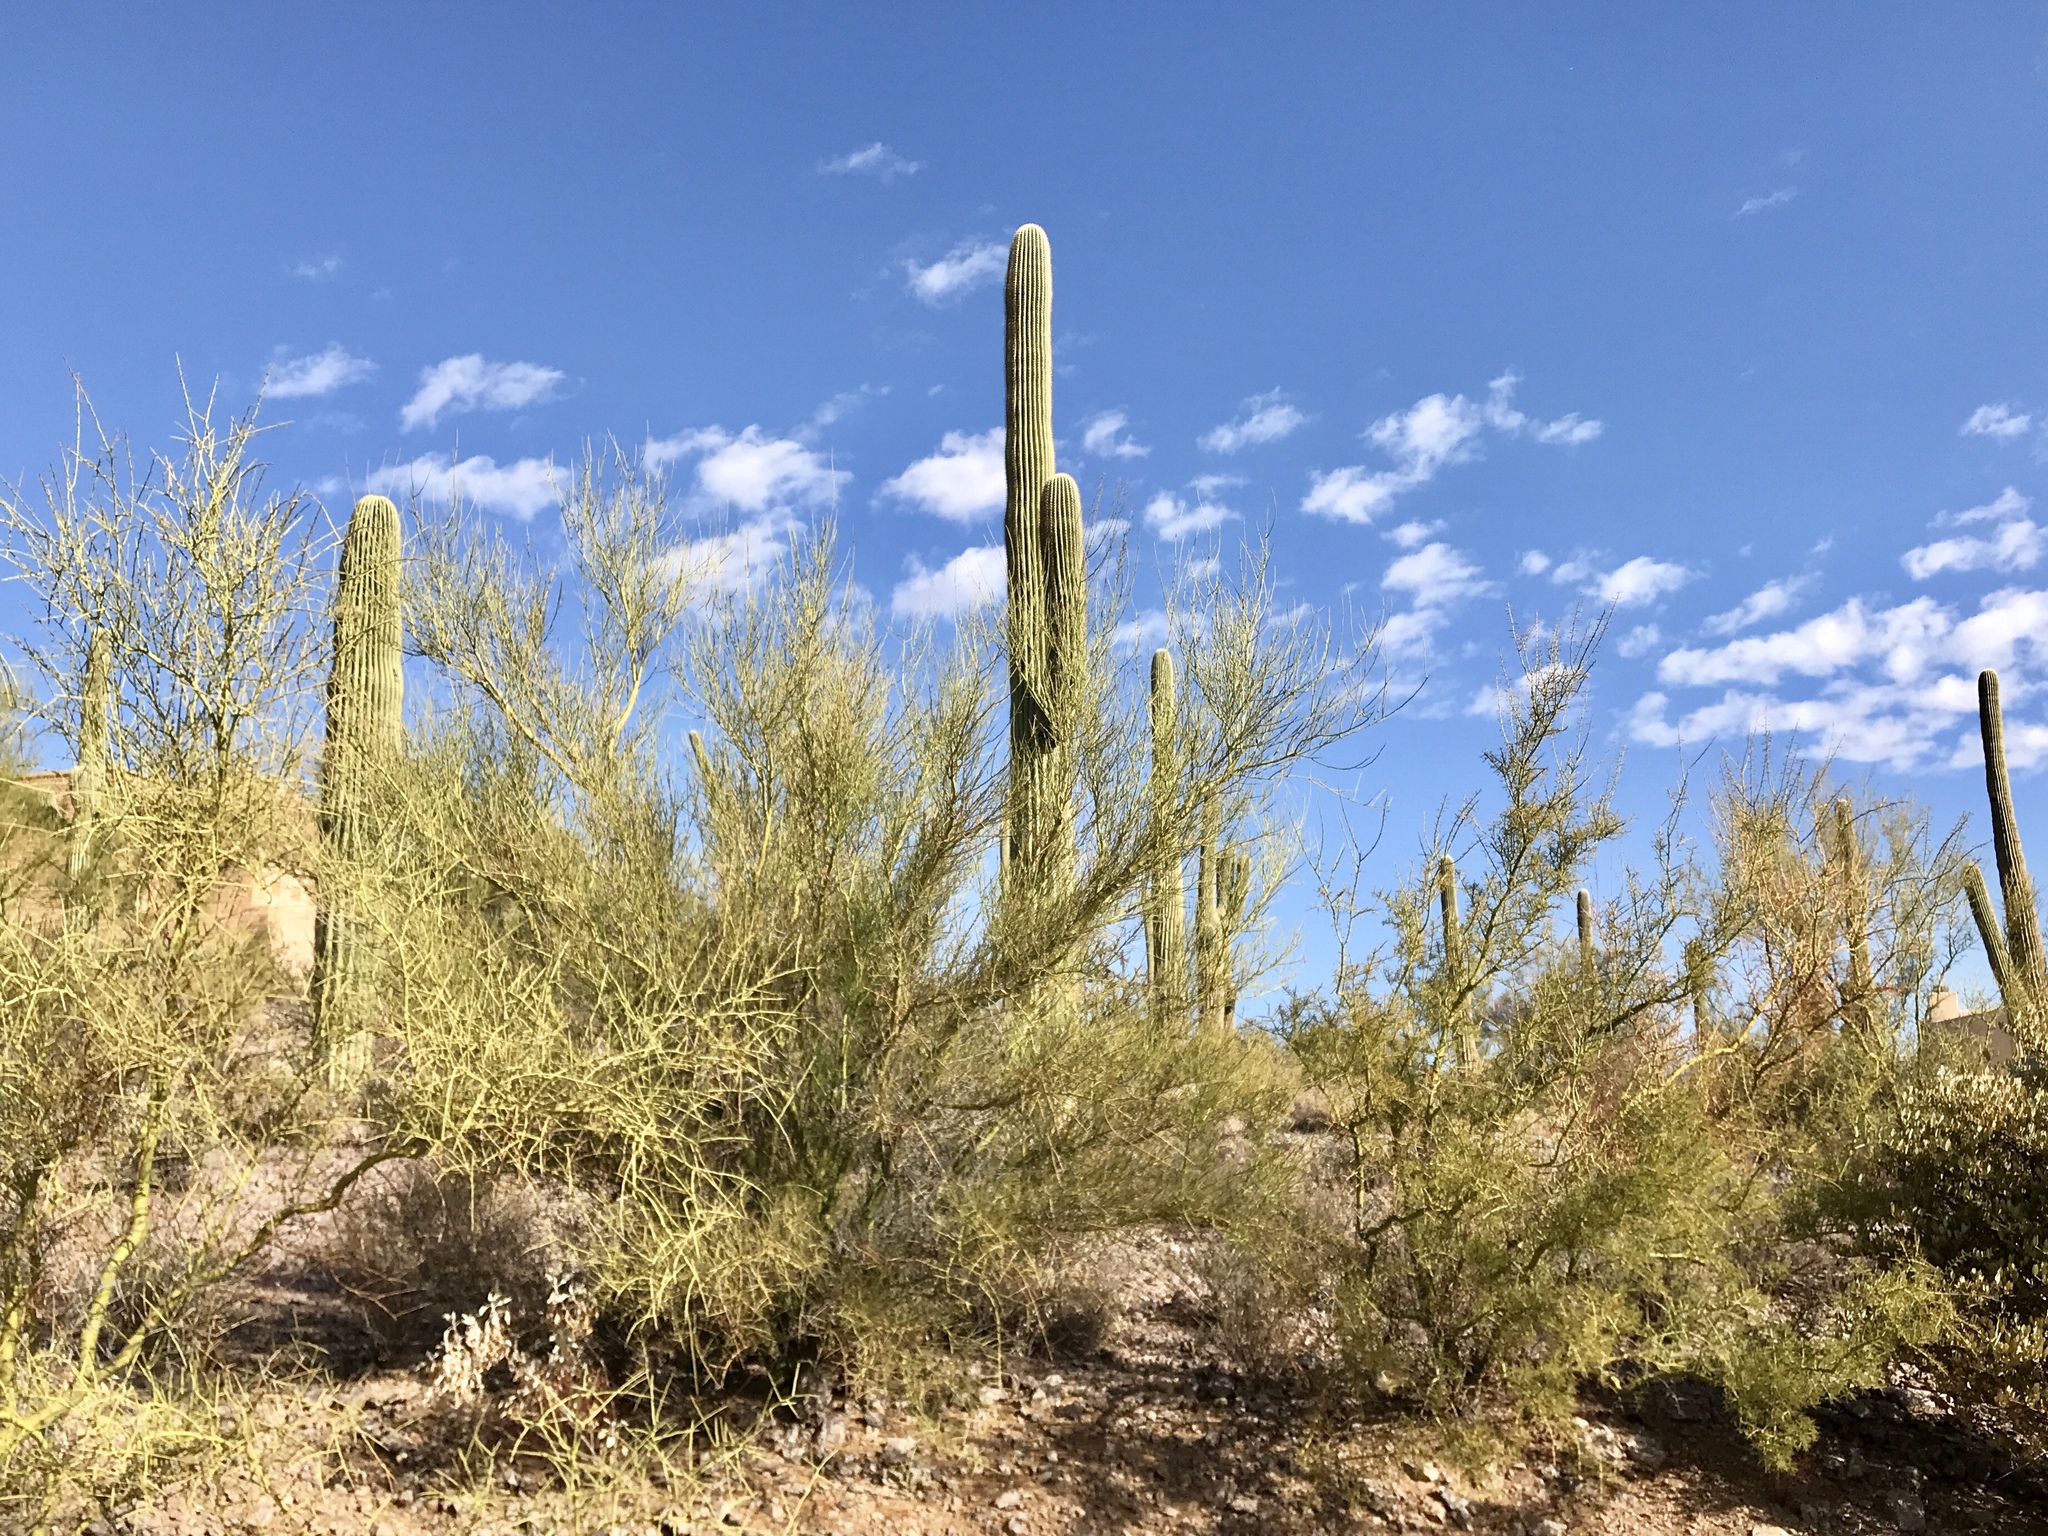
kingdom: Plantae
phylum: Tracheophyta
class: Magnoliopsida
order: Fabales
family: Fabaceae
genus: Parkinsonia
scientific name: Parkinsonia microphylla
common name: Yellow paloverde
